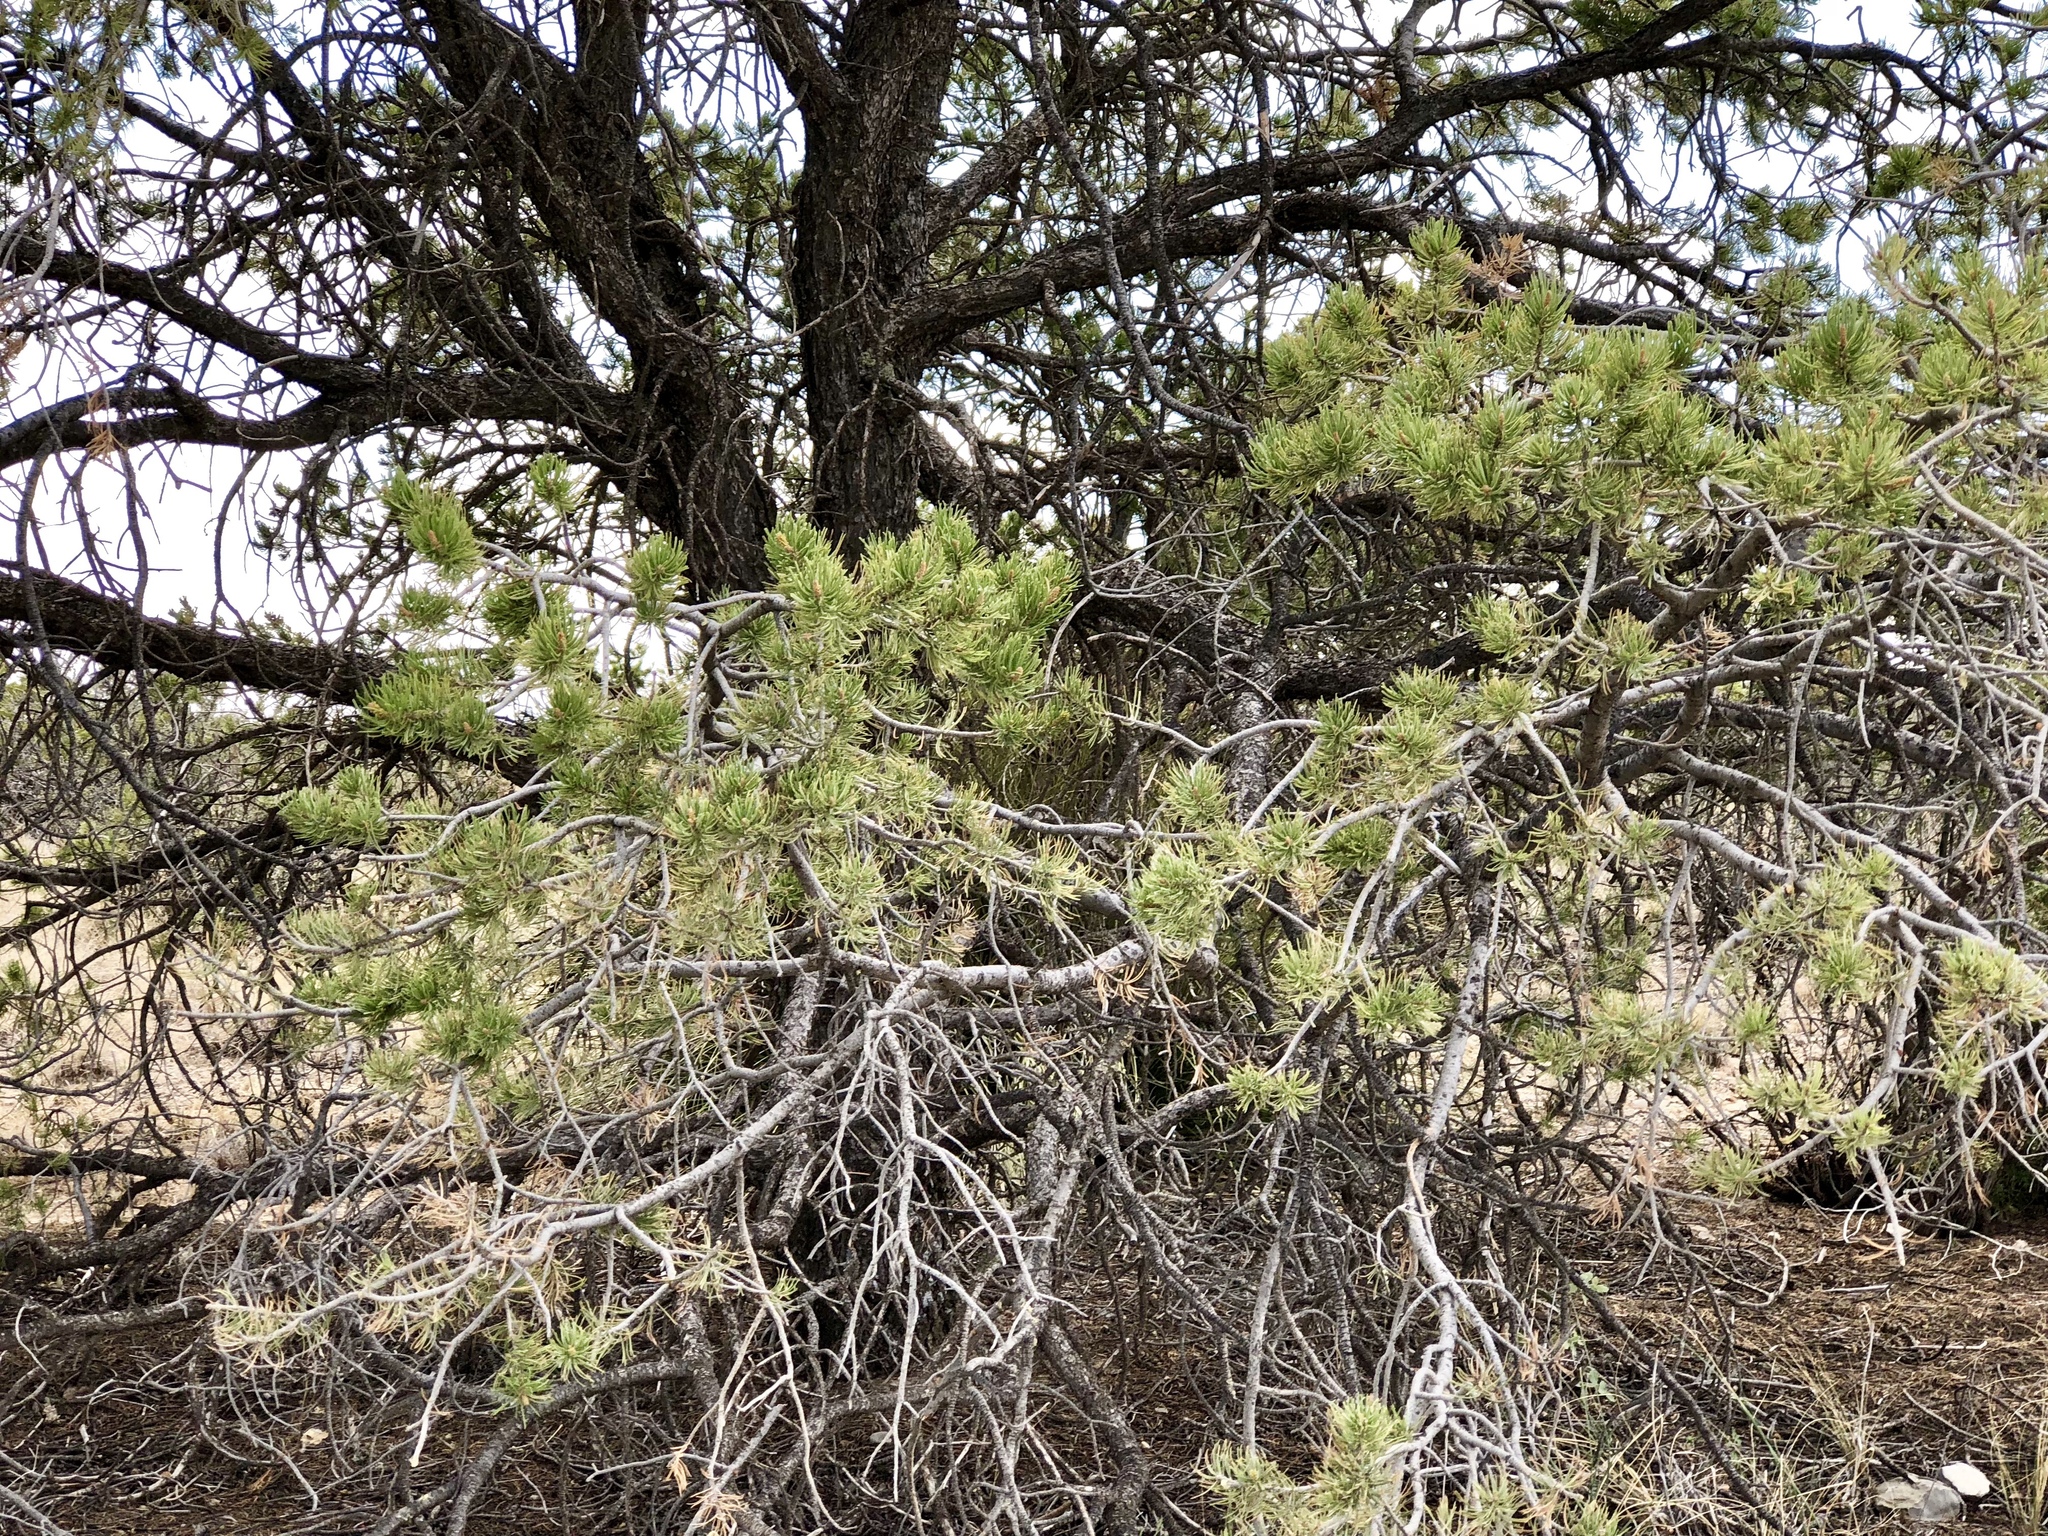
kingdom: Plantae
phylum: Tracheophyta
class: Pinopsida
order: Pinales
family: Pinaceae
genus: Pinus
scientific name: Pinus edulis
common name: Colorado pinyon
